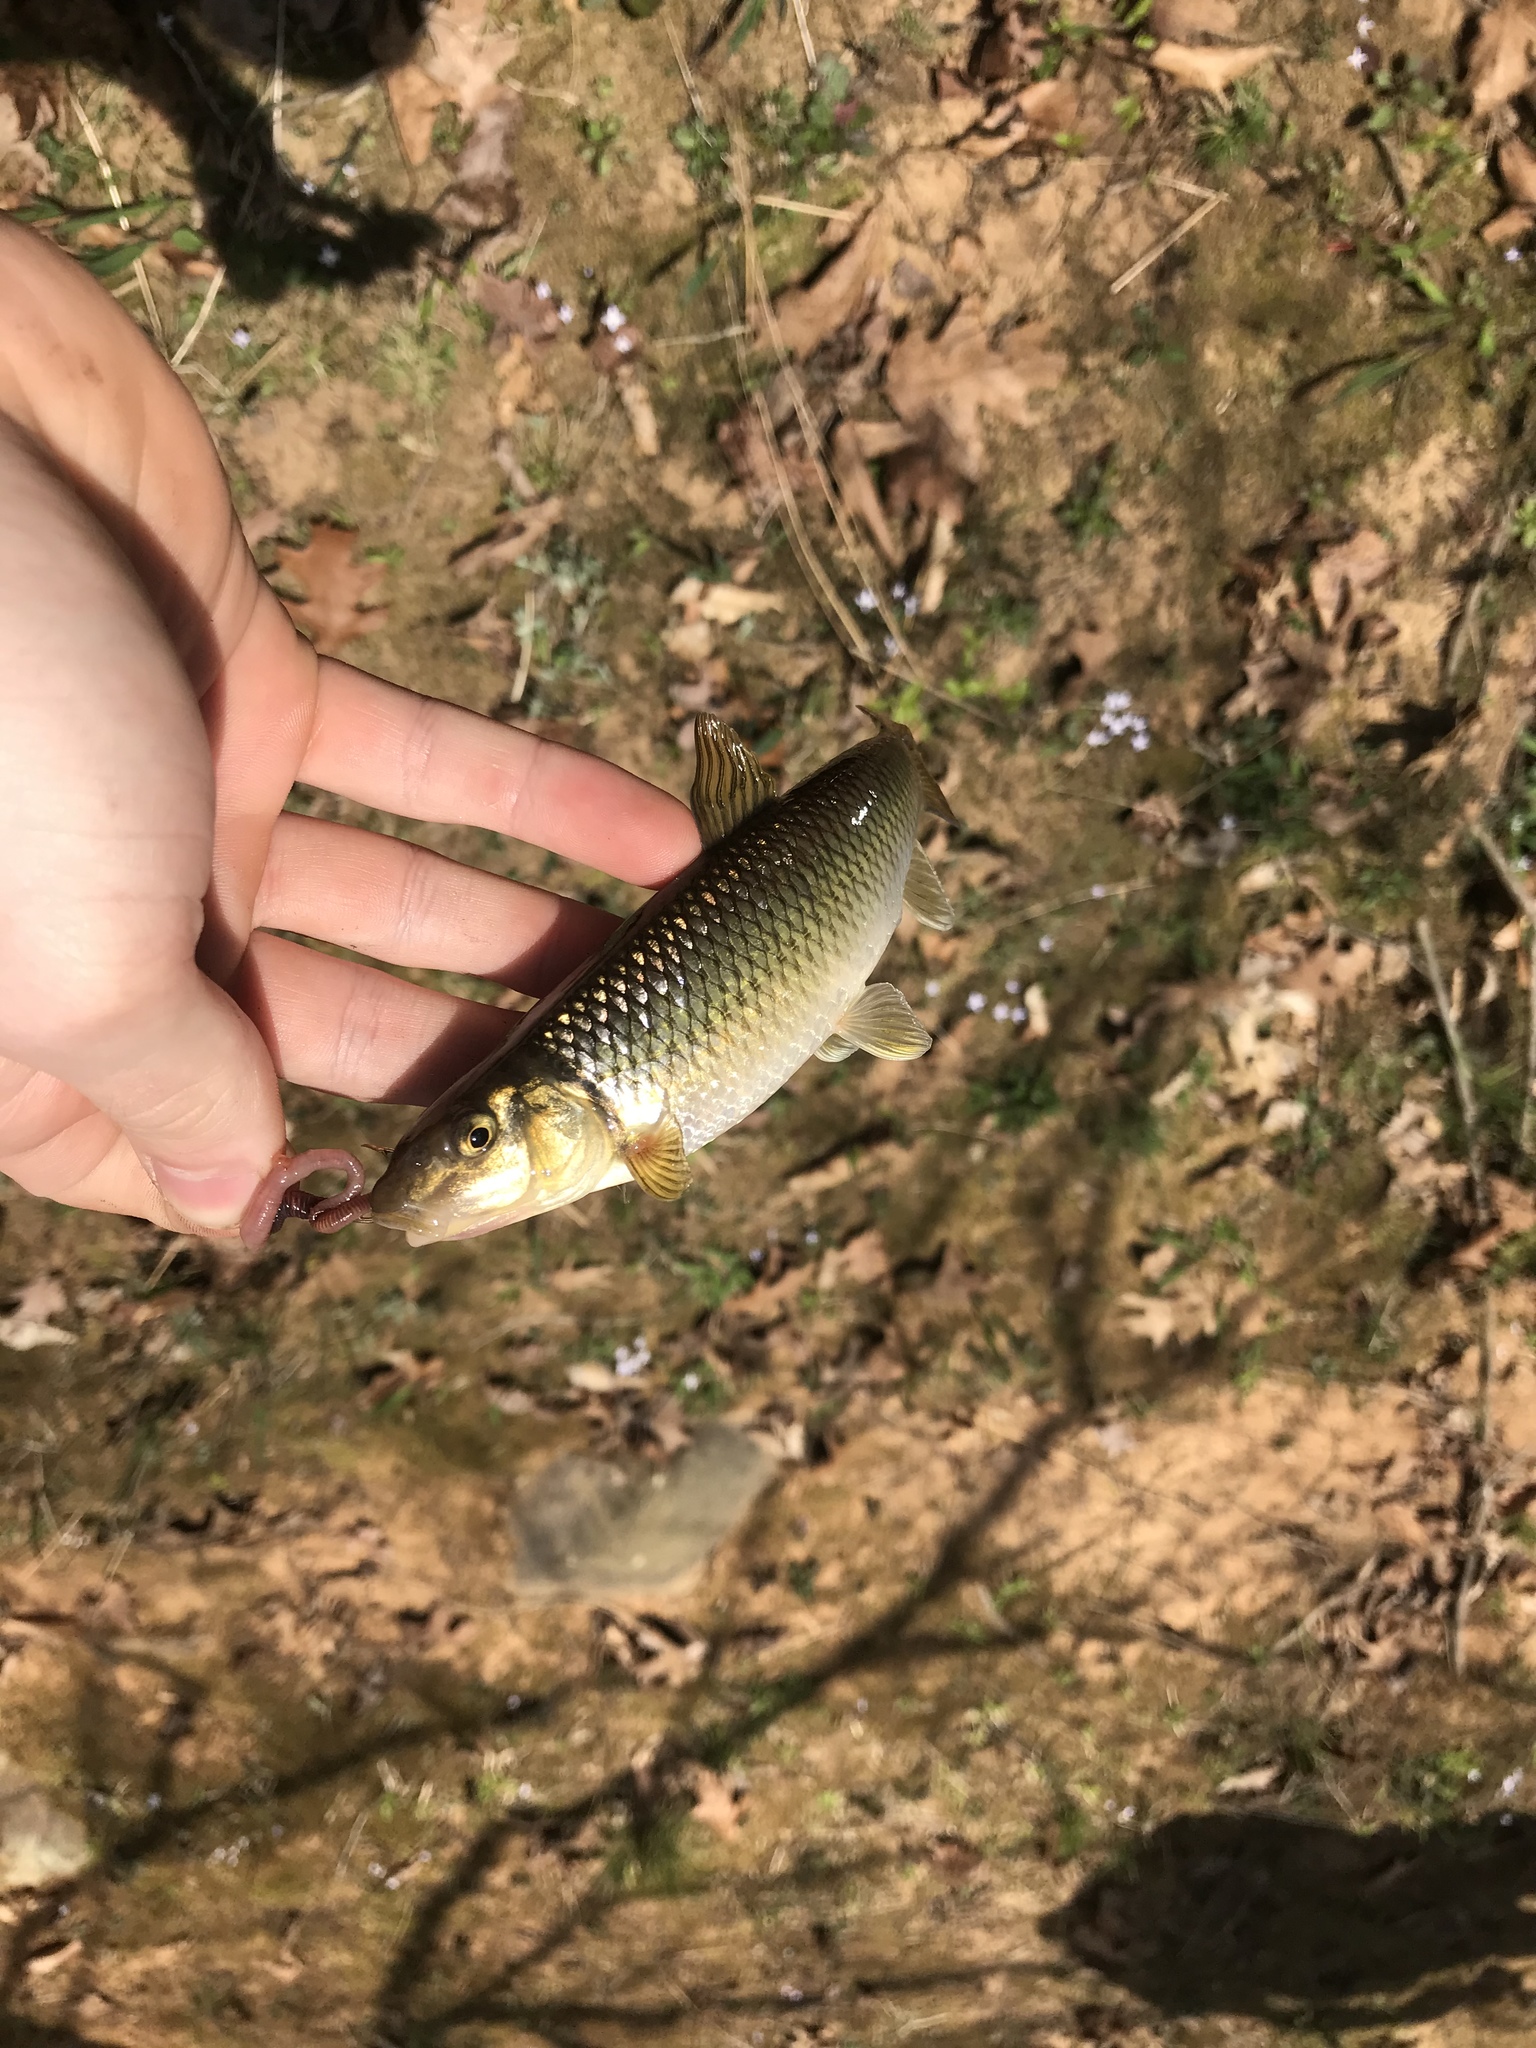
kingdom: Animalia
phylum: Chordata
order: Cypriniformes
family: Cyprinidae
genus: Nocomis
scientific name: Nocomis raneyi
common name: Bull chub
